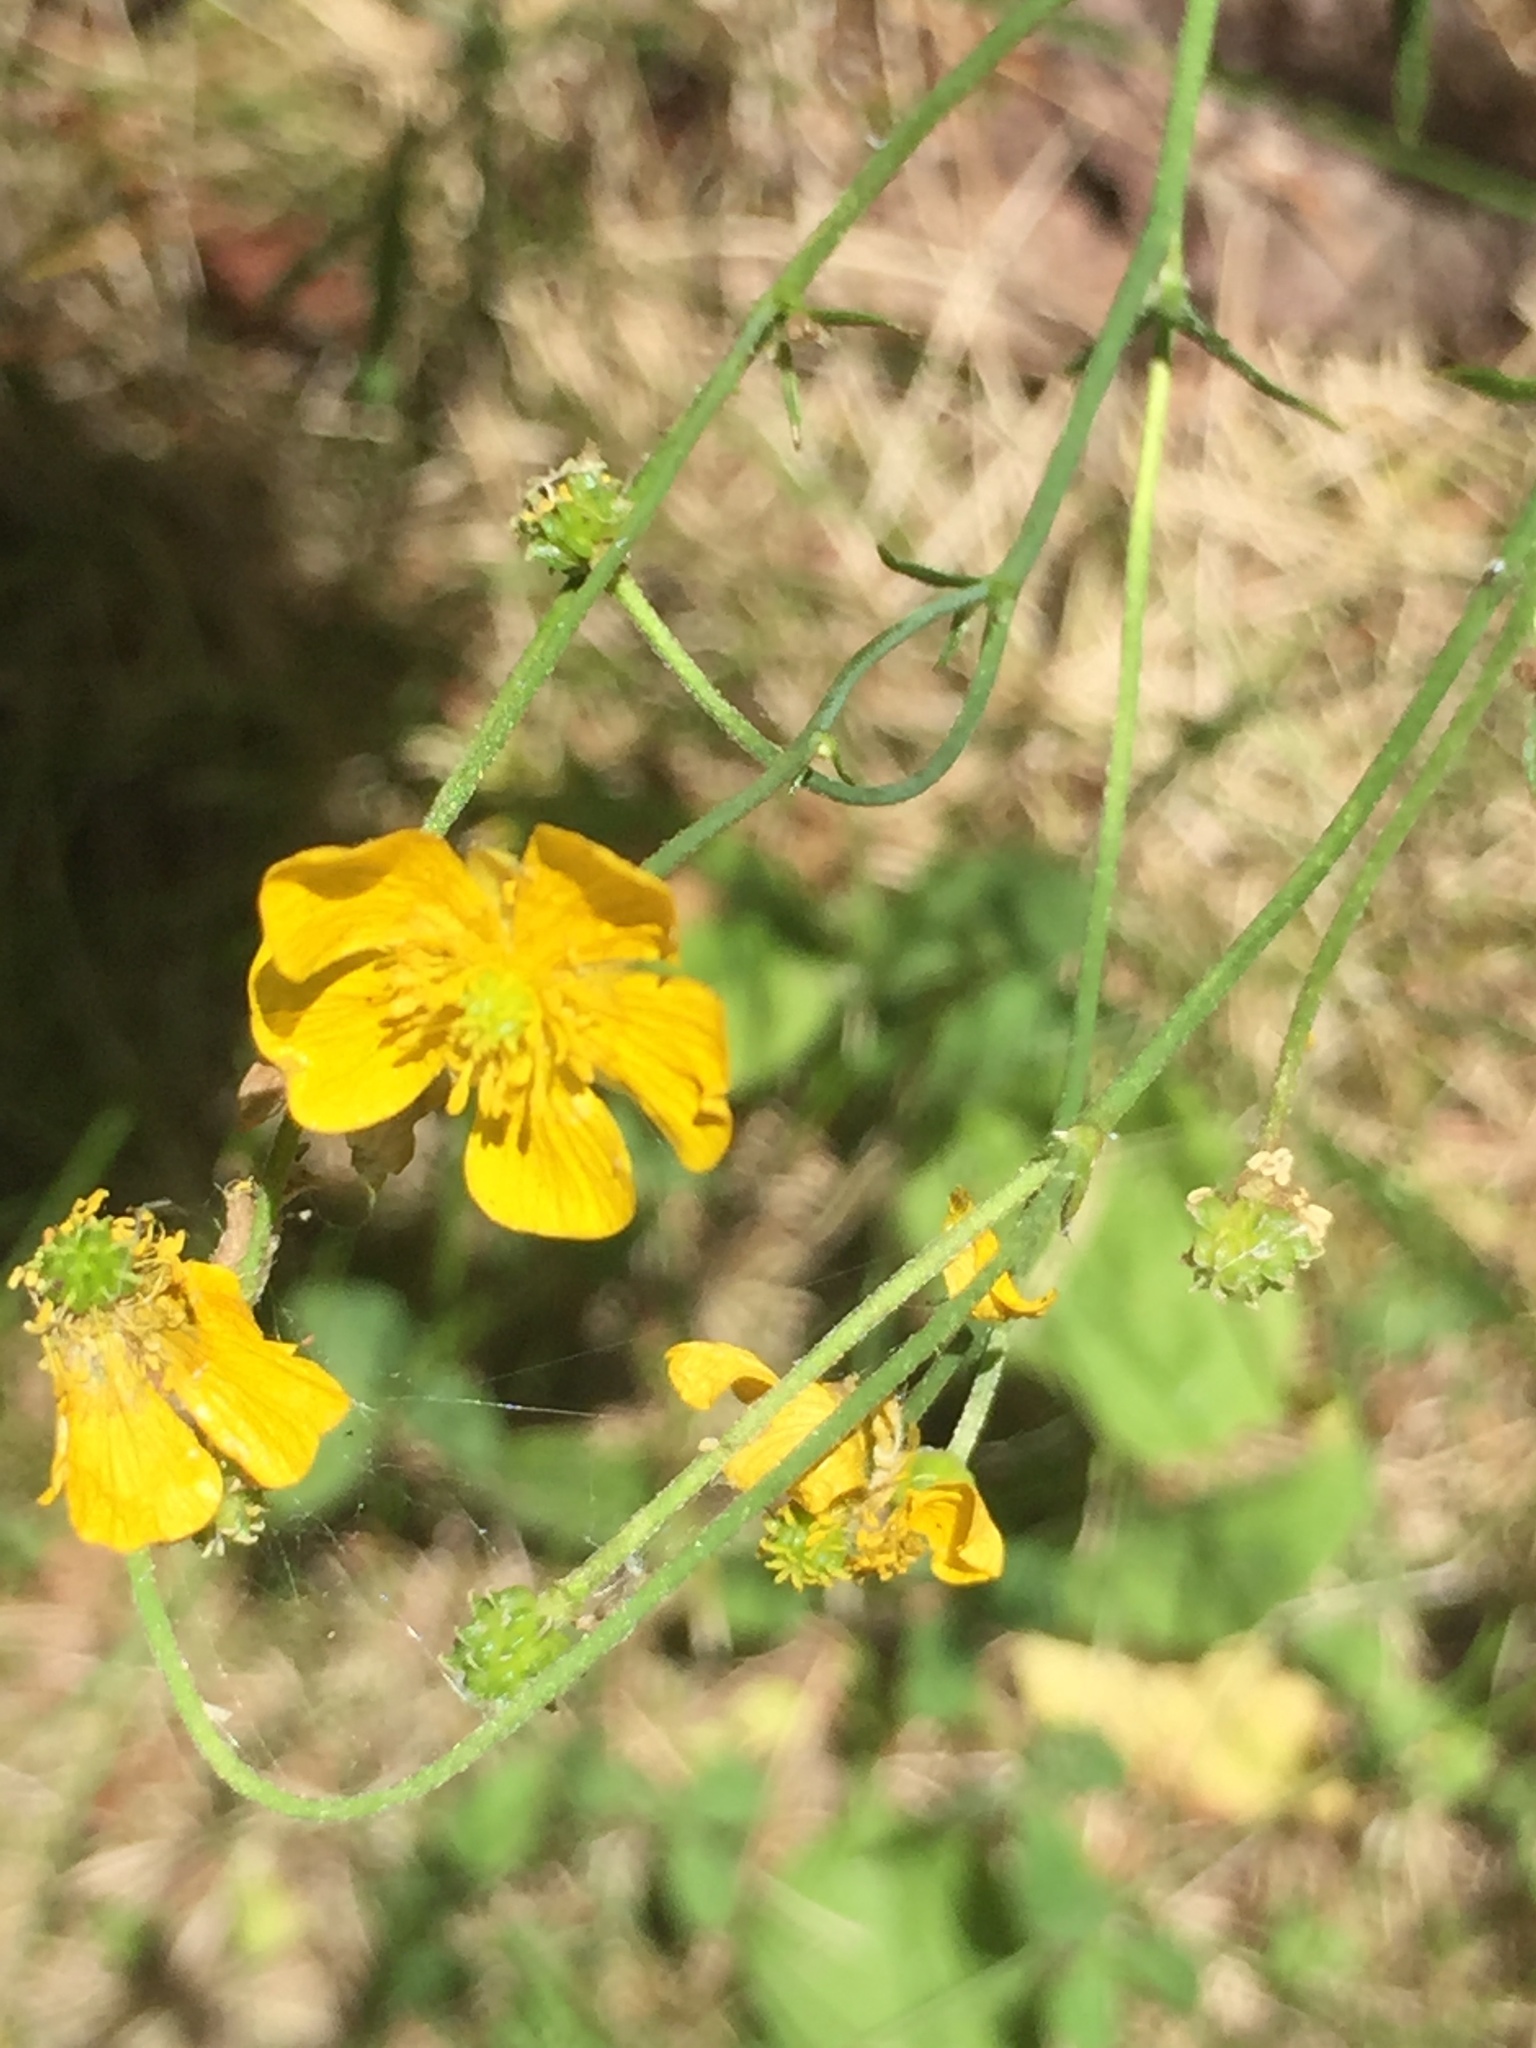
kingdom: Plantae
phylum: Tracheophyta
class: Magnoliopsida
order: Ranunculales
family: Ranunculaceae
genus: Ranunculus
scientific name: Ranunculus acris
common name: Meadow buttercup
